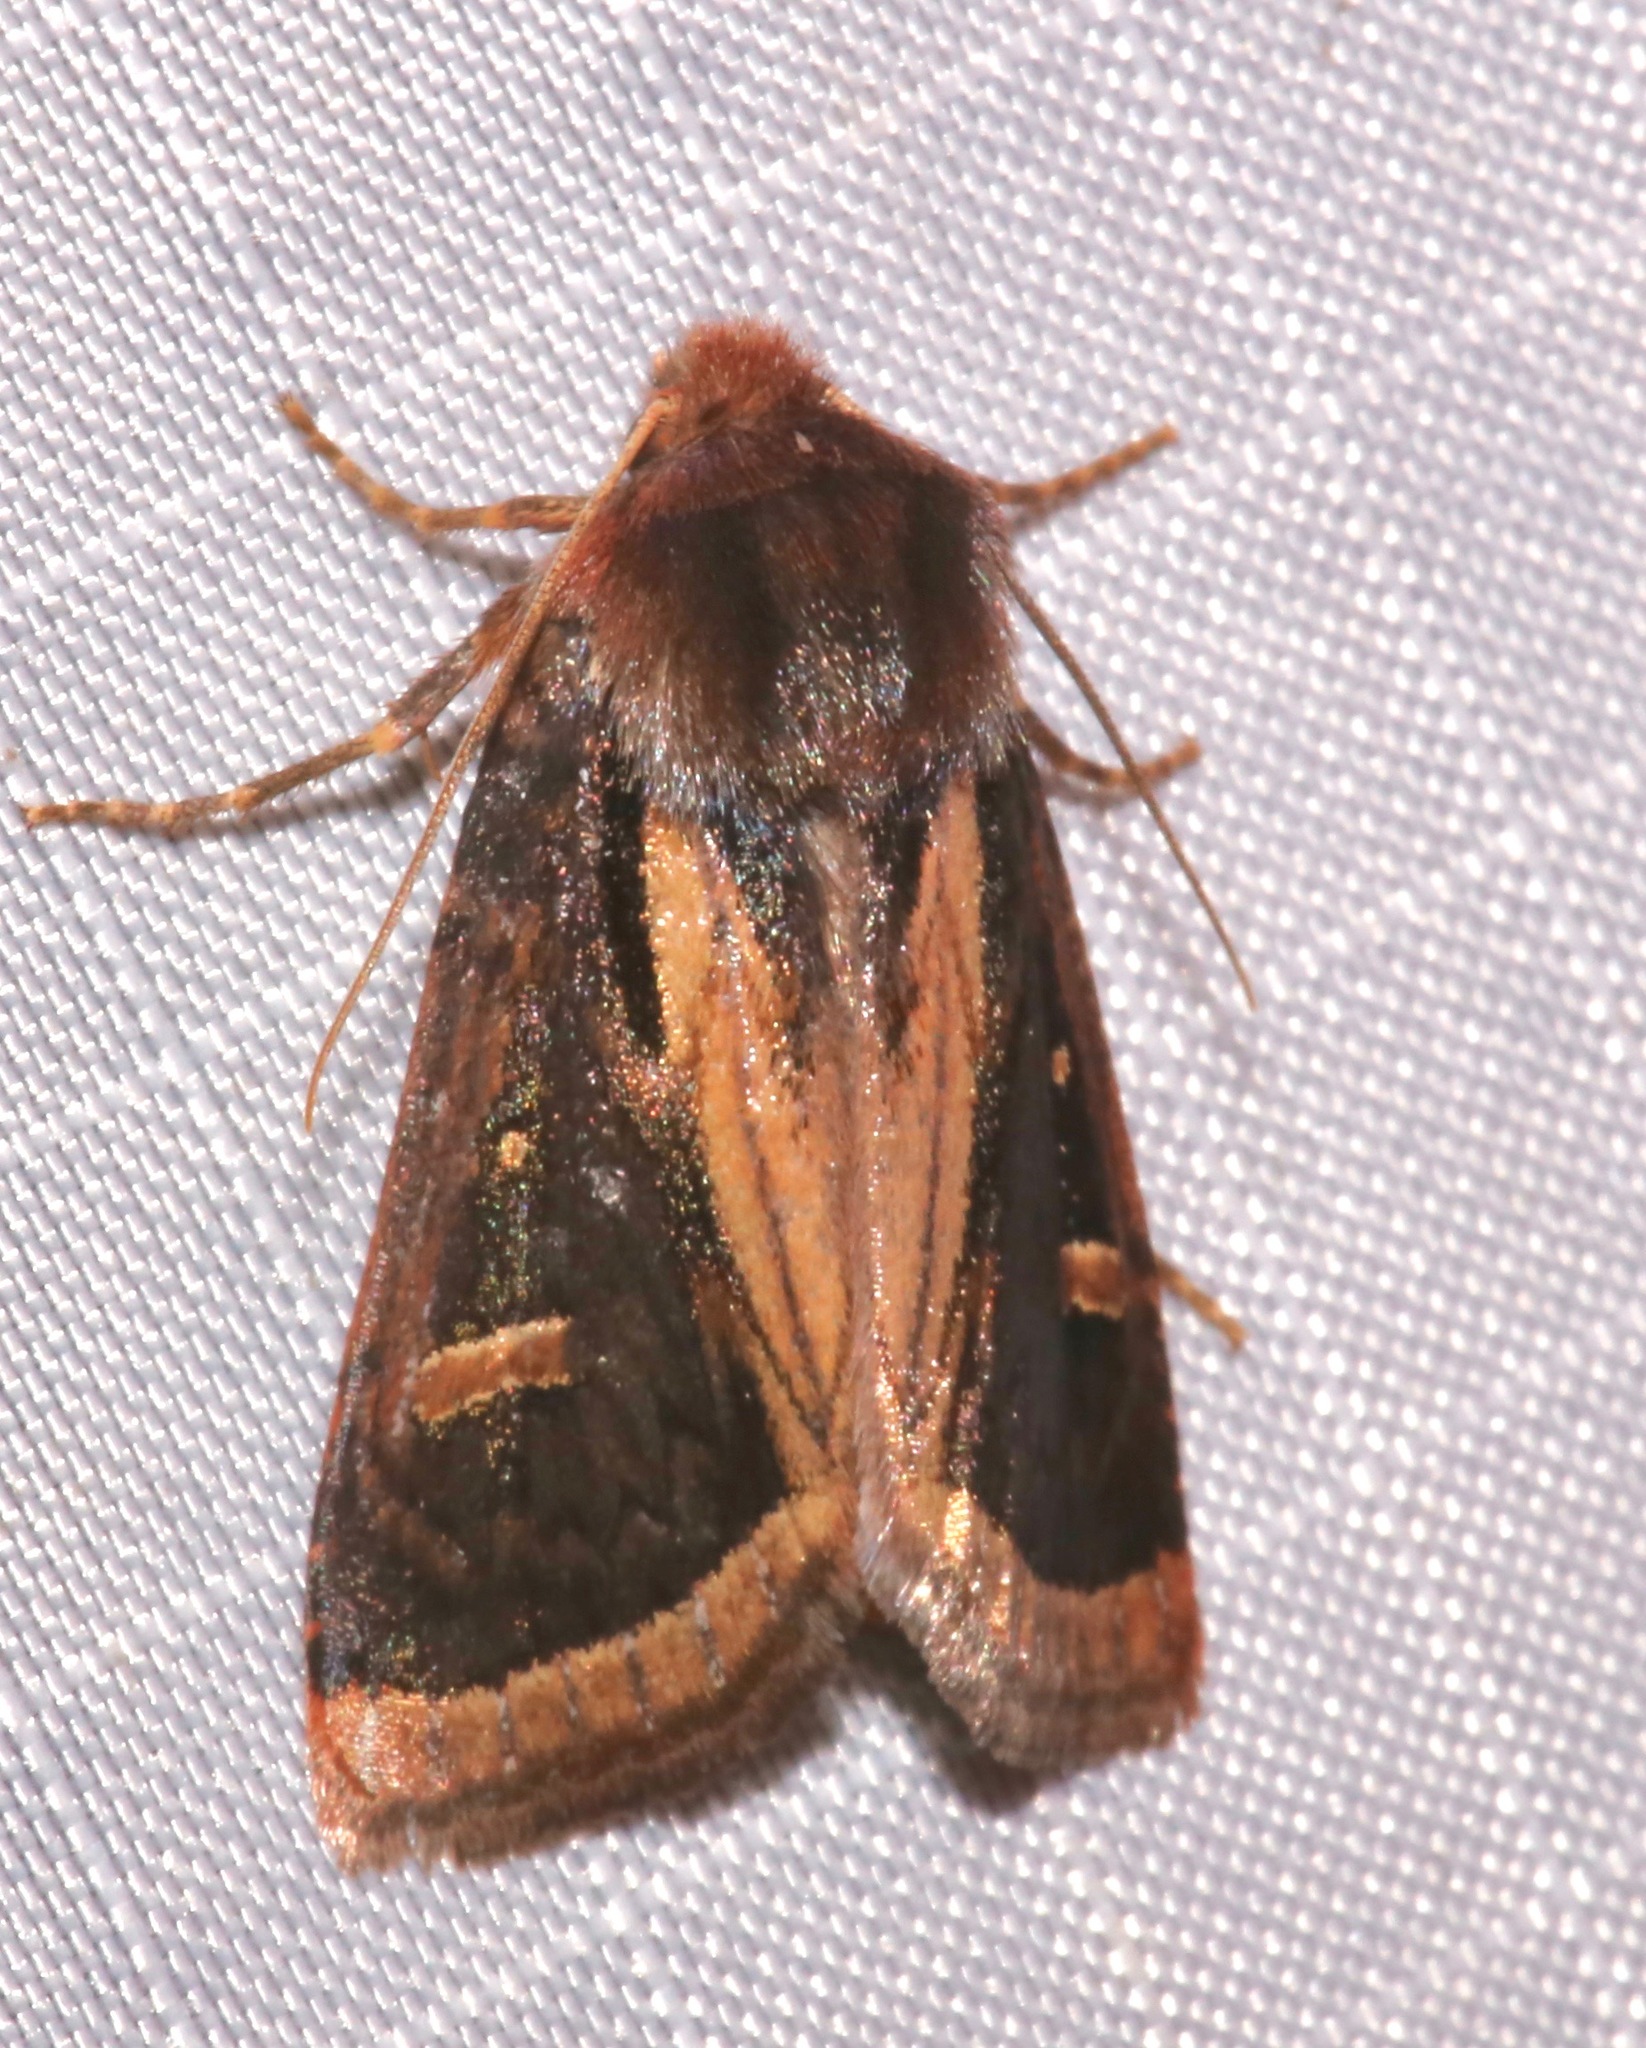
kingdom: Animalia
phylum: Arthropoda
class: Insecta
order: Lepidoptera
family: Noctuidae
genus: Trichofeltia
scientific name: Trichofeltia circumdata
